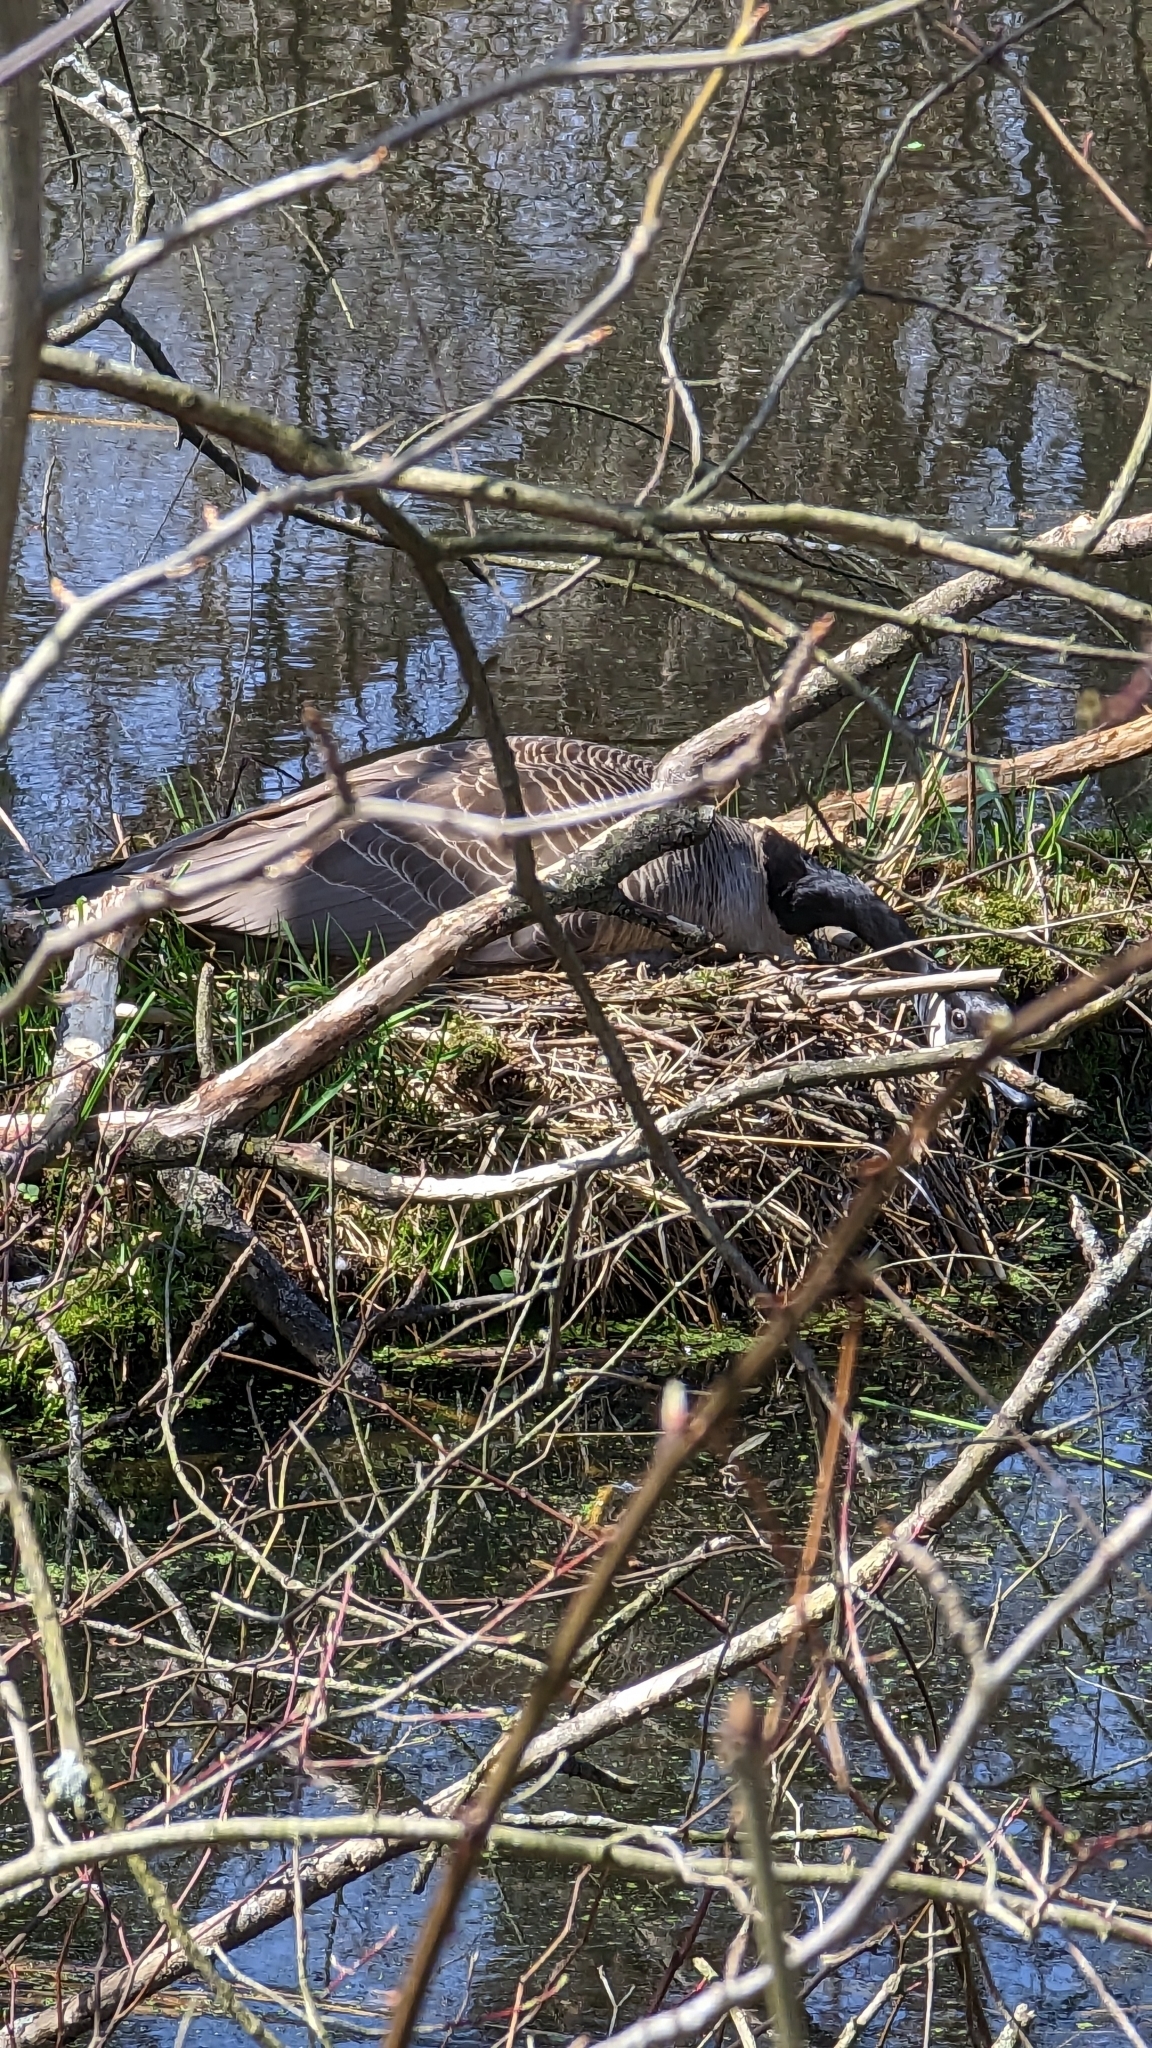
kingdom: Animalia
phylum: Chordata
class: Aves
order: Anseriformes
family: Anatidae
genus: Branta
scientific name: Branta canadensis
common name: Canada goose
